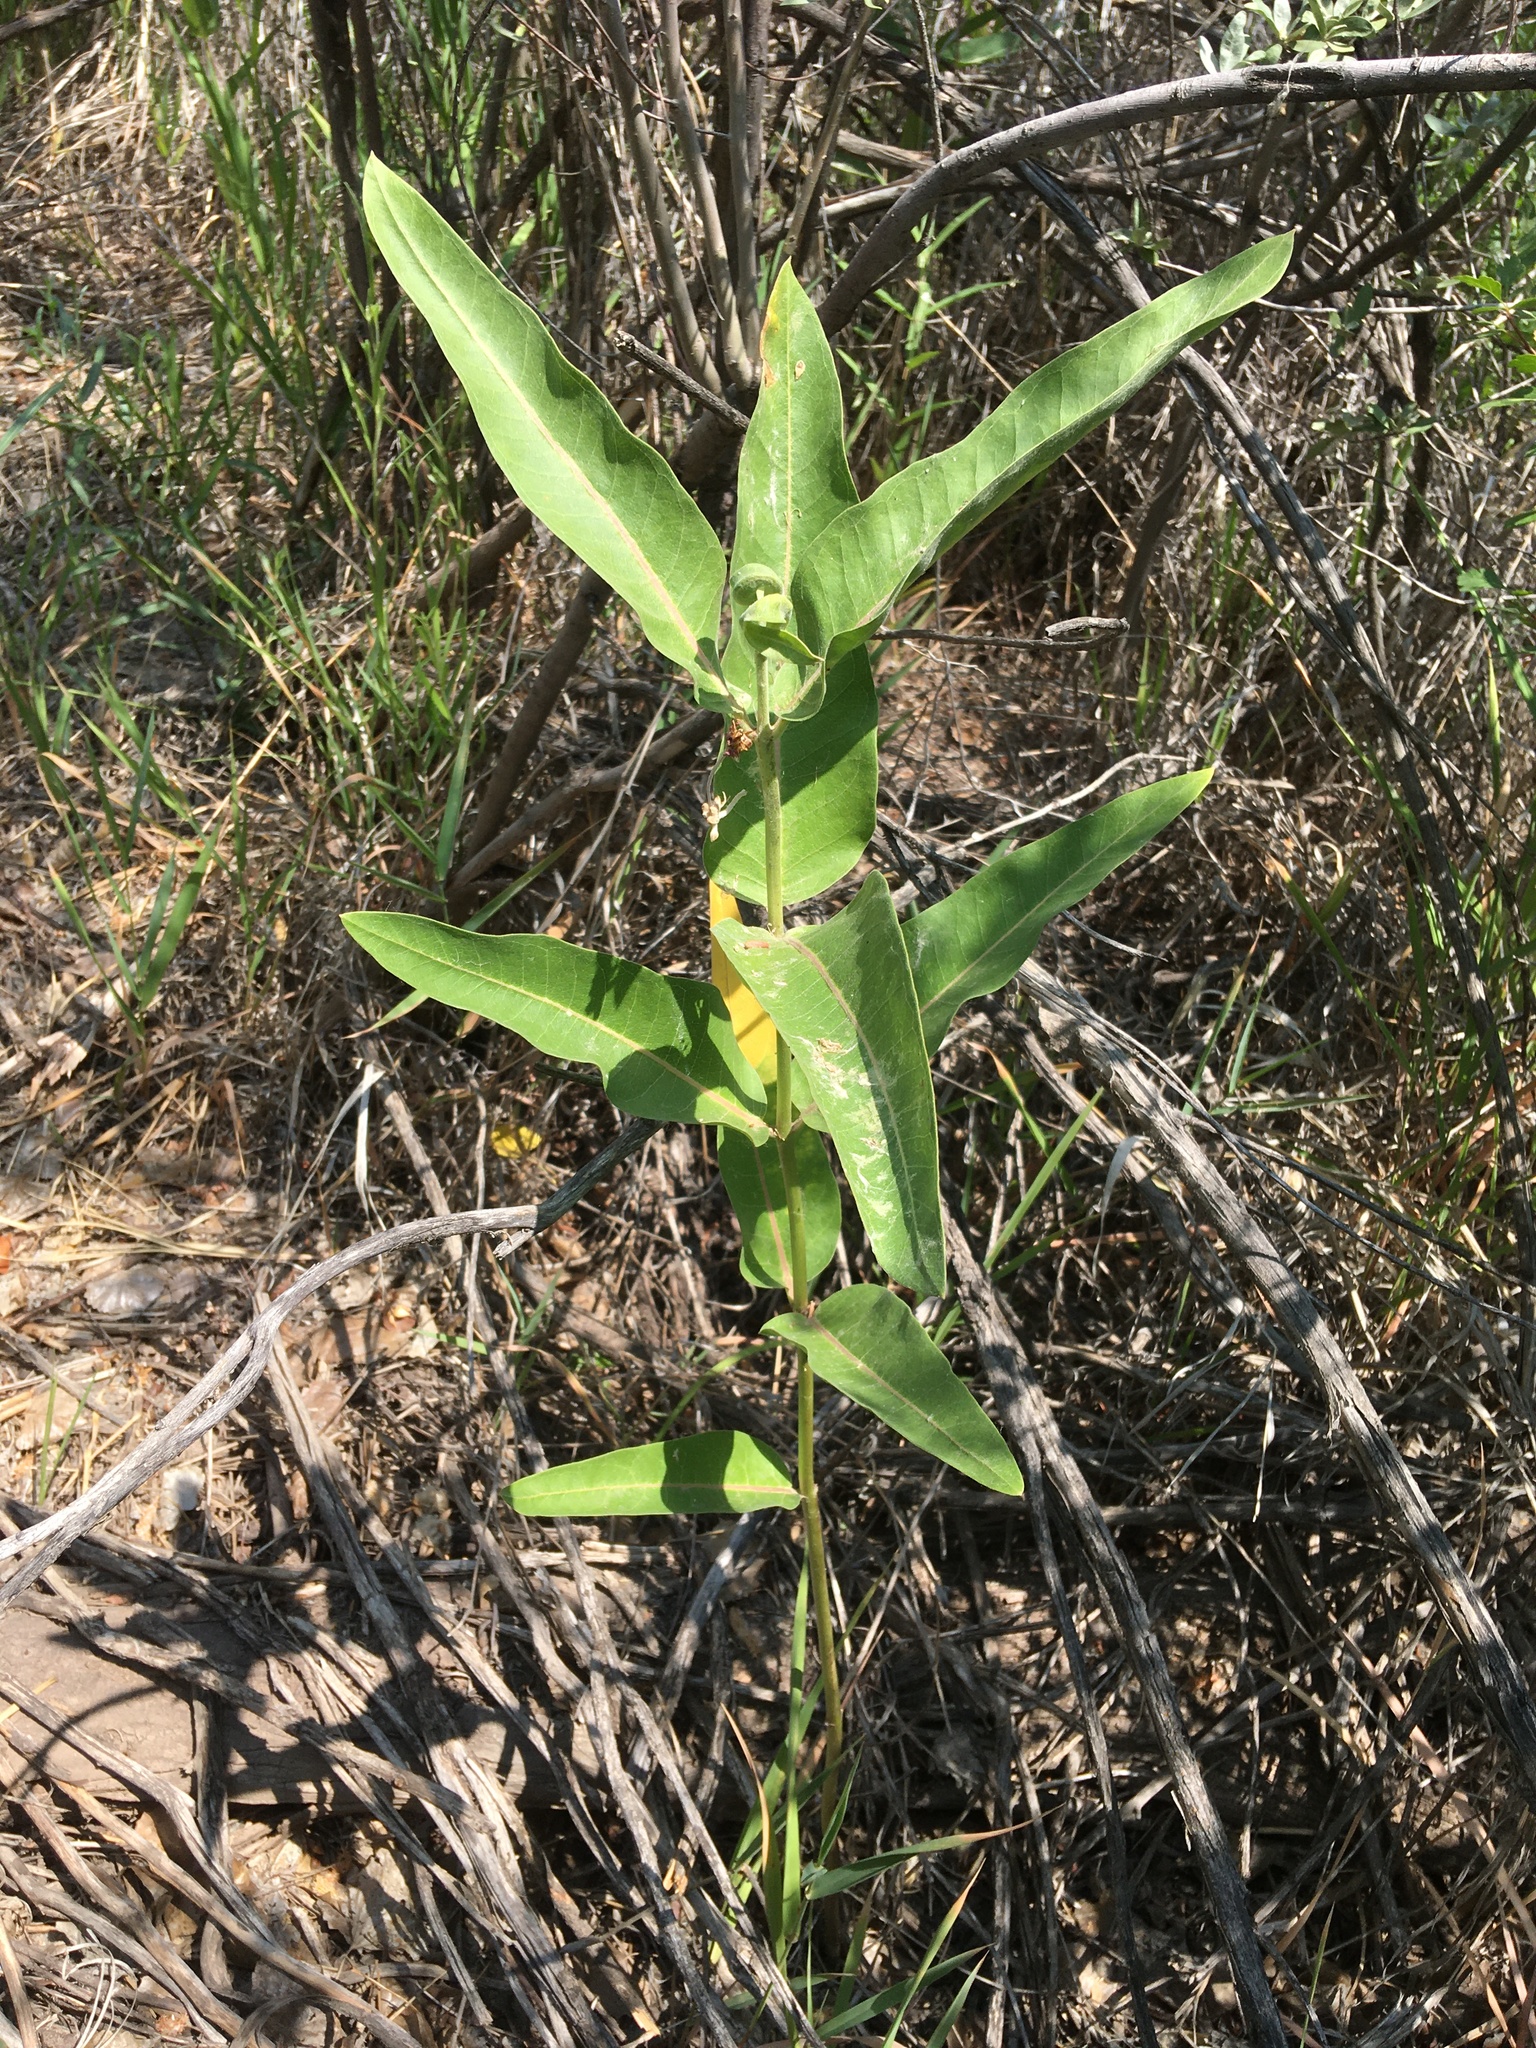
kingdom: Plantae
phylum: Tracheophyta
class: Magnoliopsida
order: Gentianales
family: Apocynaceae
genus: Asclepias
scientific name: Asclepias speciosa
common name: Showy milkweed
